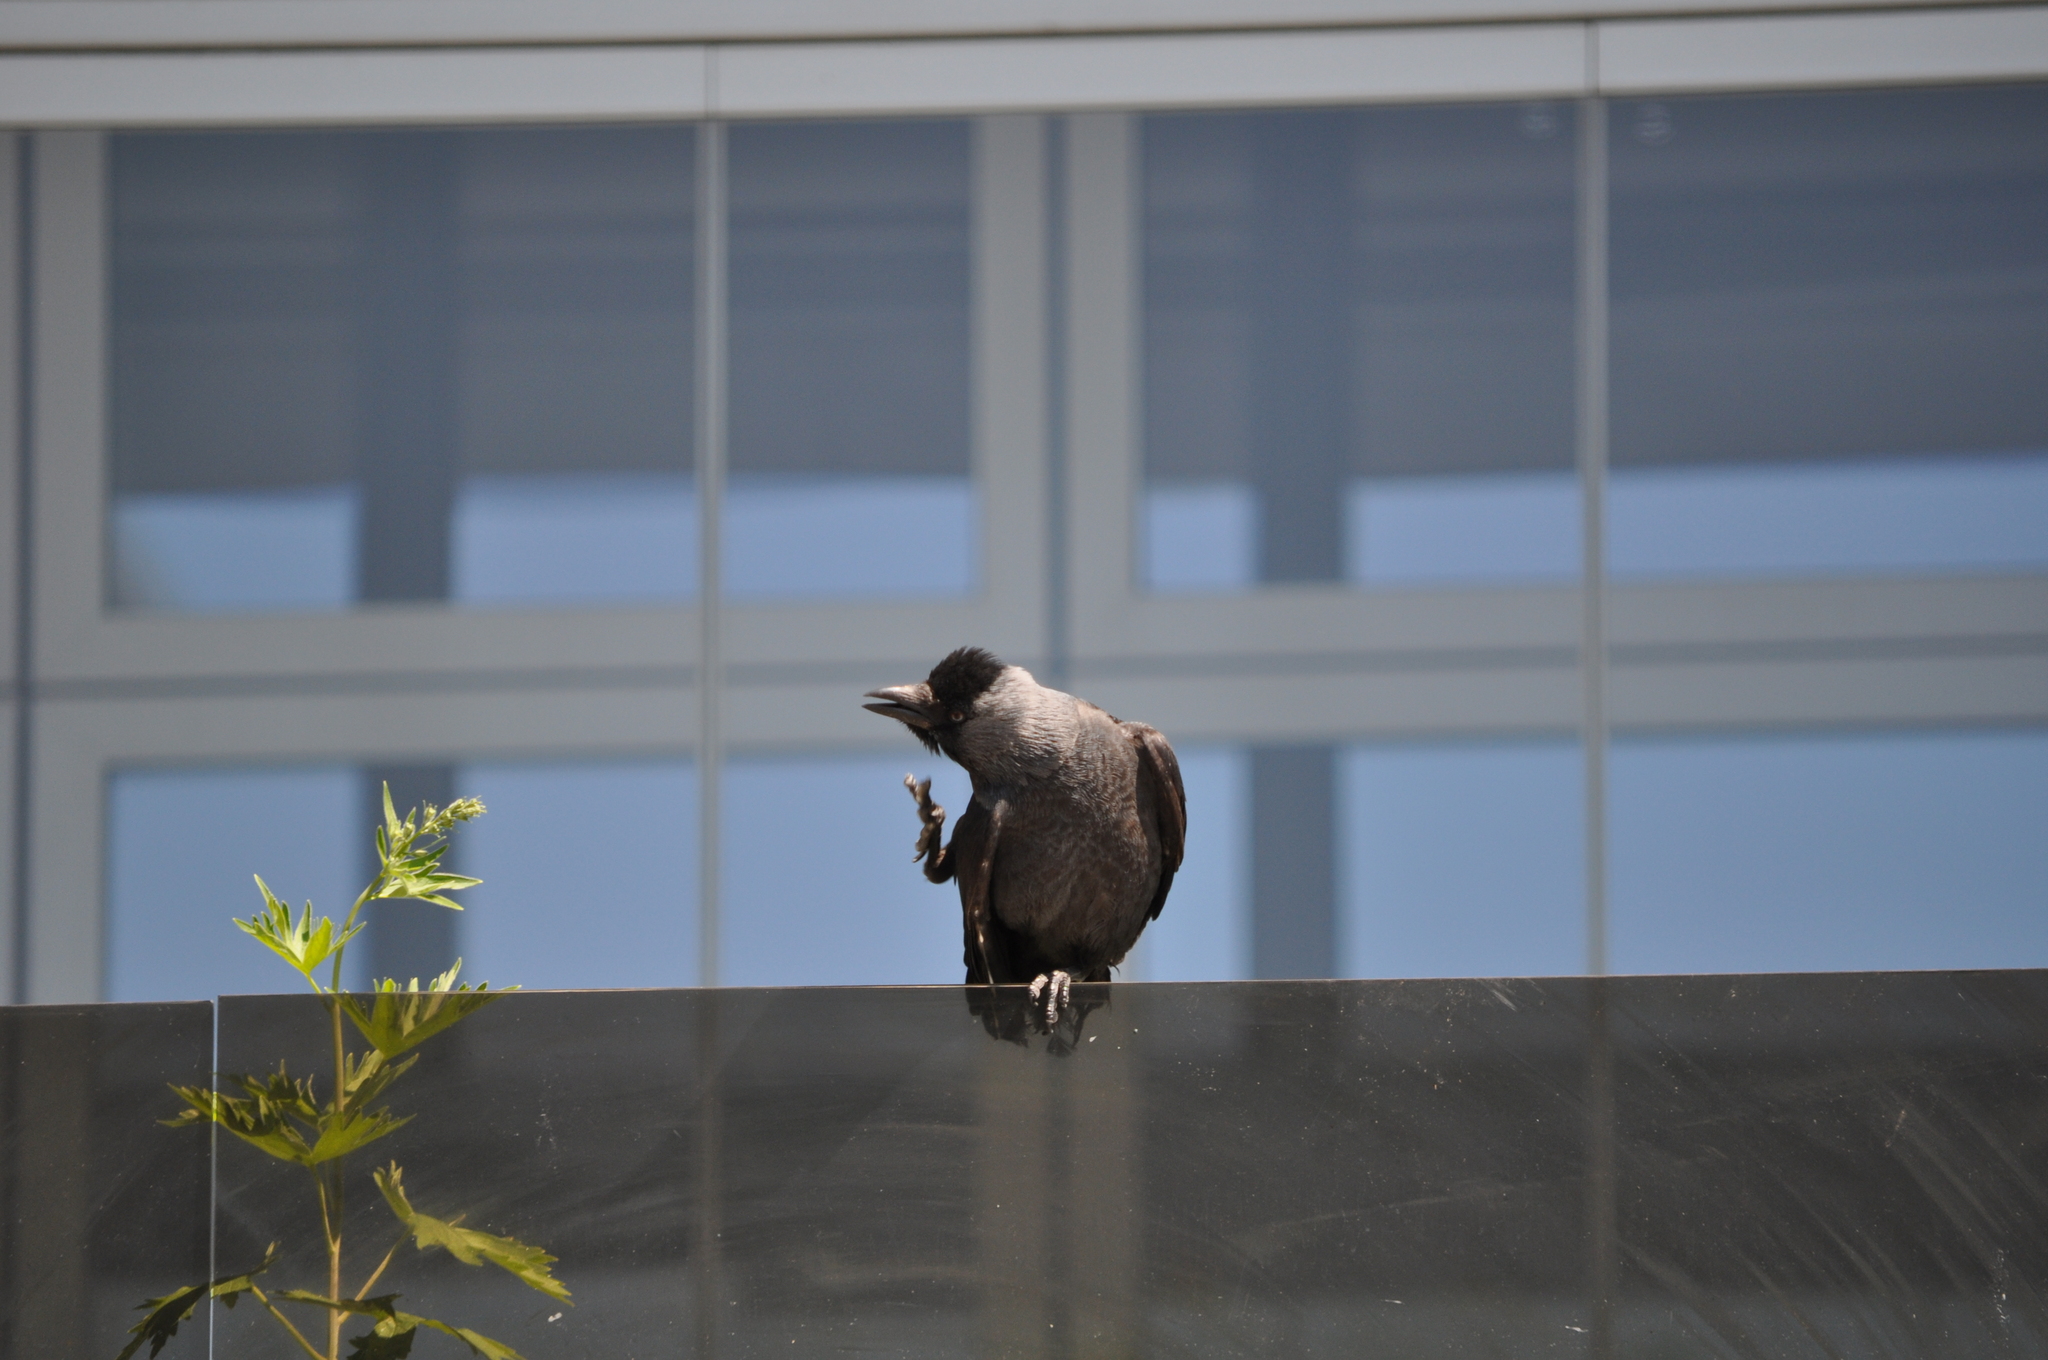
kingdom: Animalia
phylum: Chordata
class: Aves
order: Passeriformes
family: Corvidae
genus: Coloeus
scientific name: Coloeus monedula
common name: Western jackdaw
